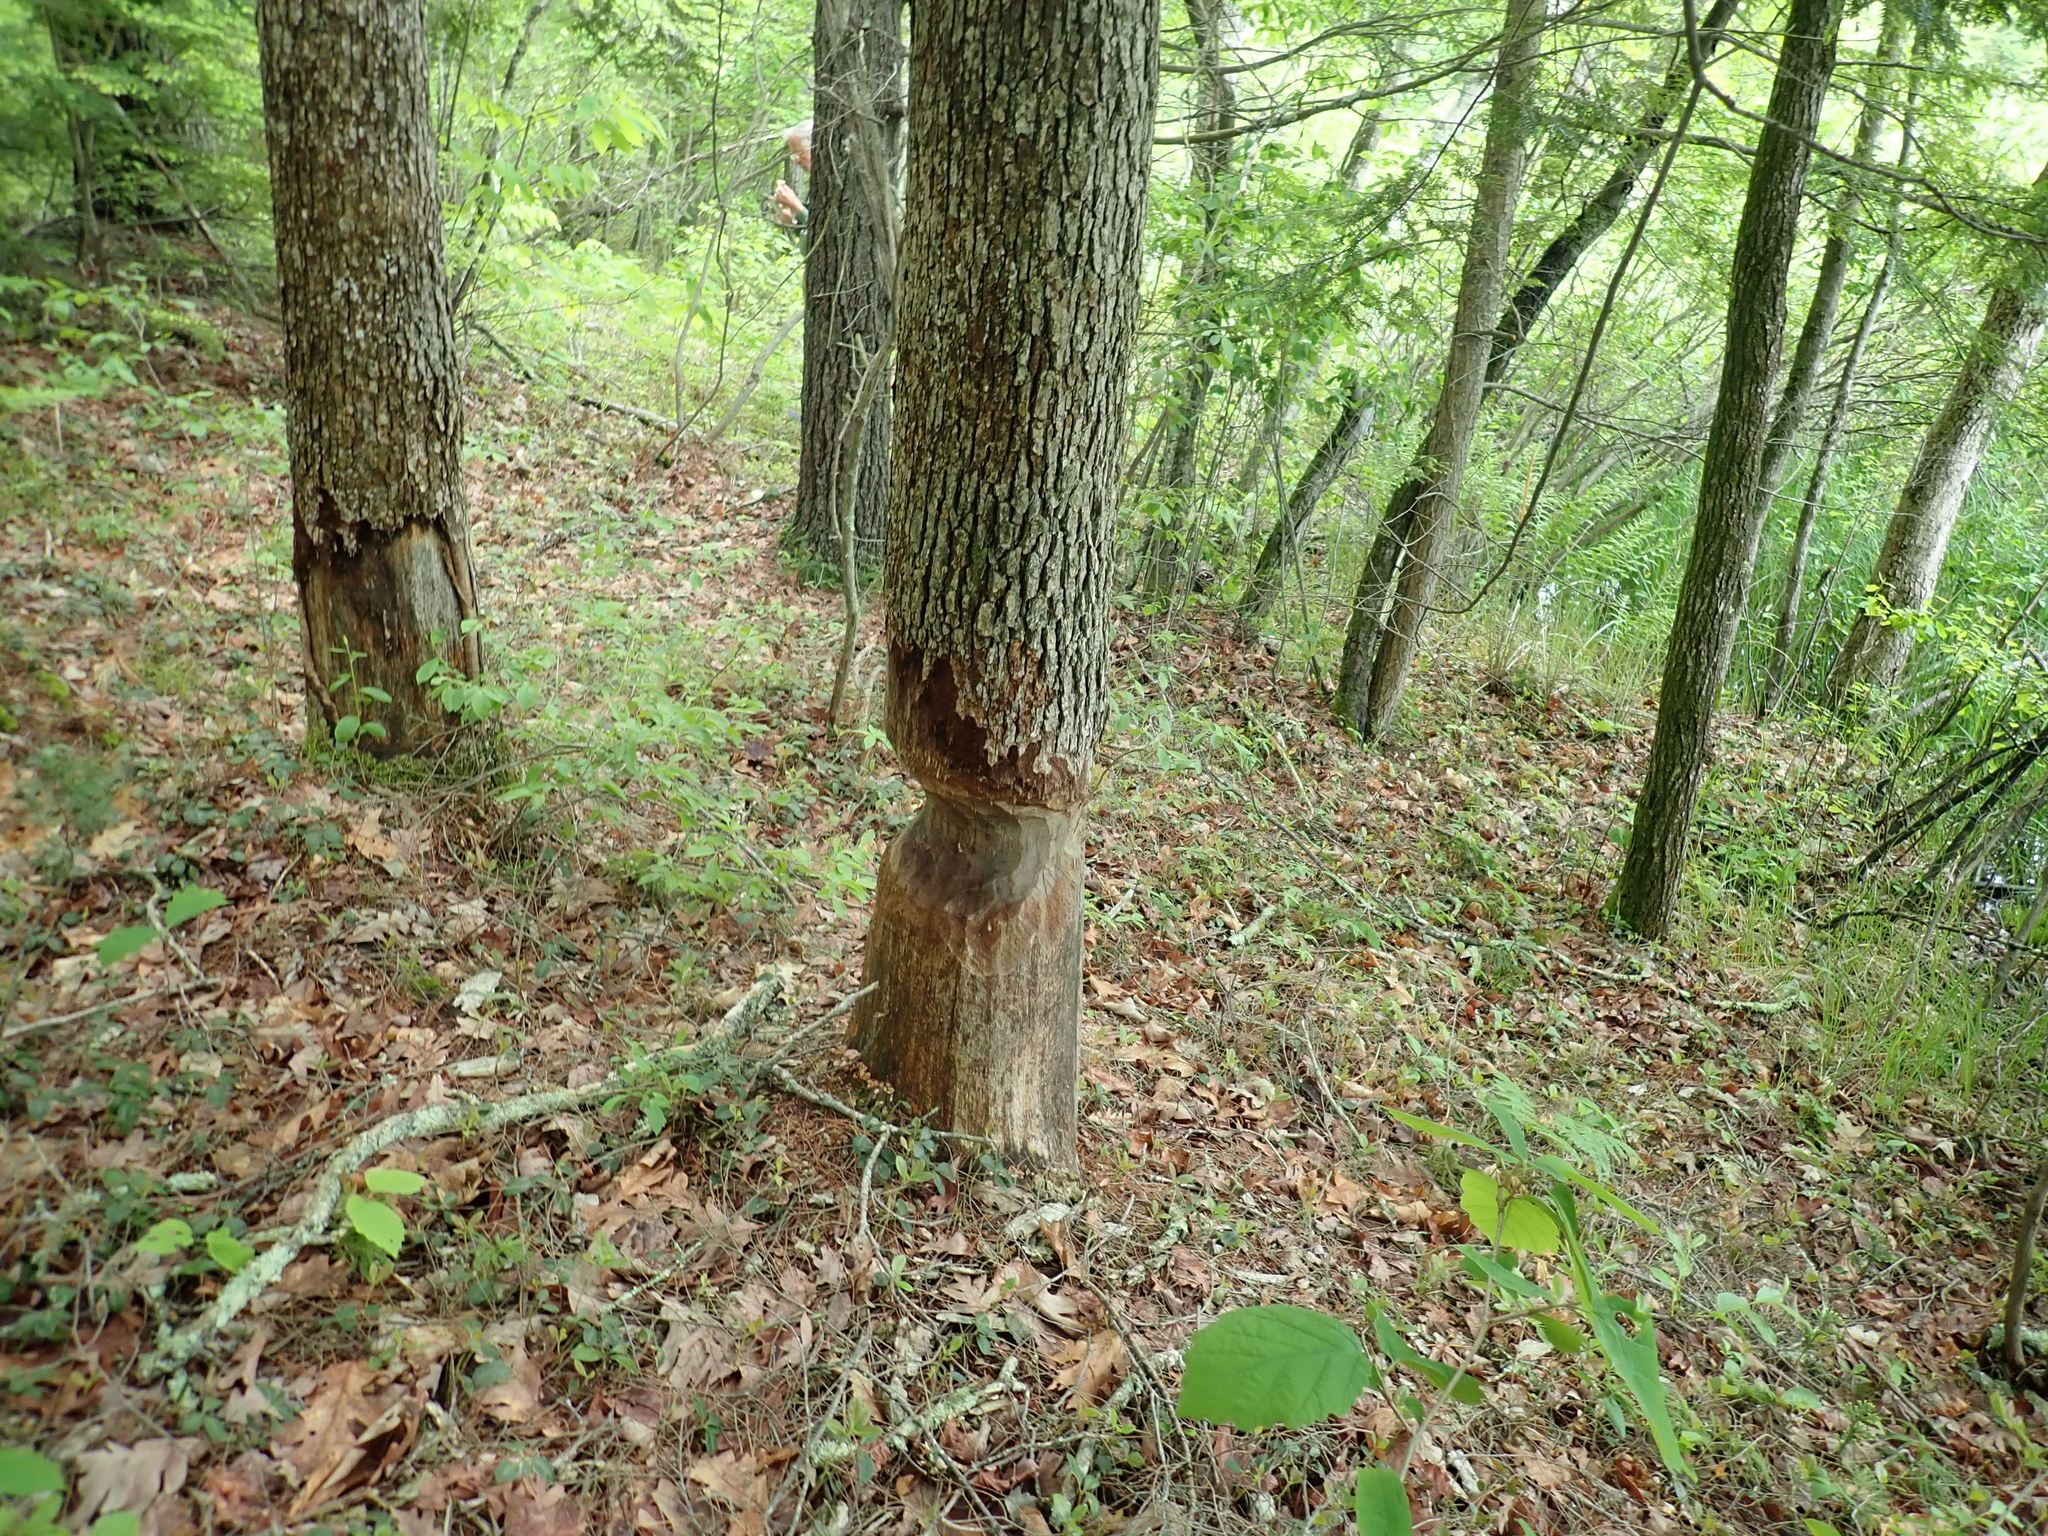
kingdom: Animalia
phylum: Chordata
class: Mammalia
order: Rodentia
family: Castoridae
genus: Castor
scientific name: Castor canadensis
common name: American beaver
